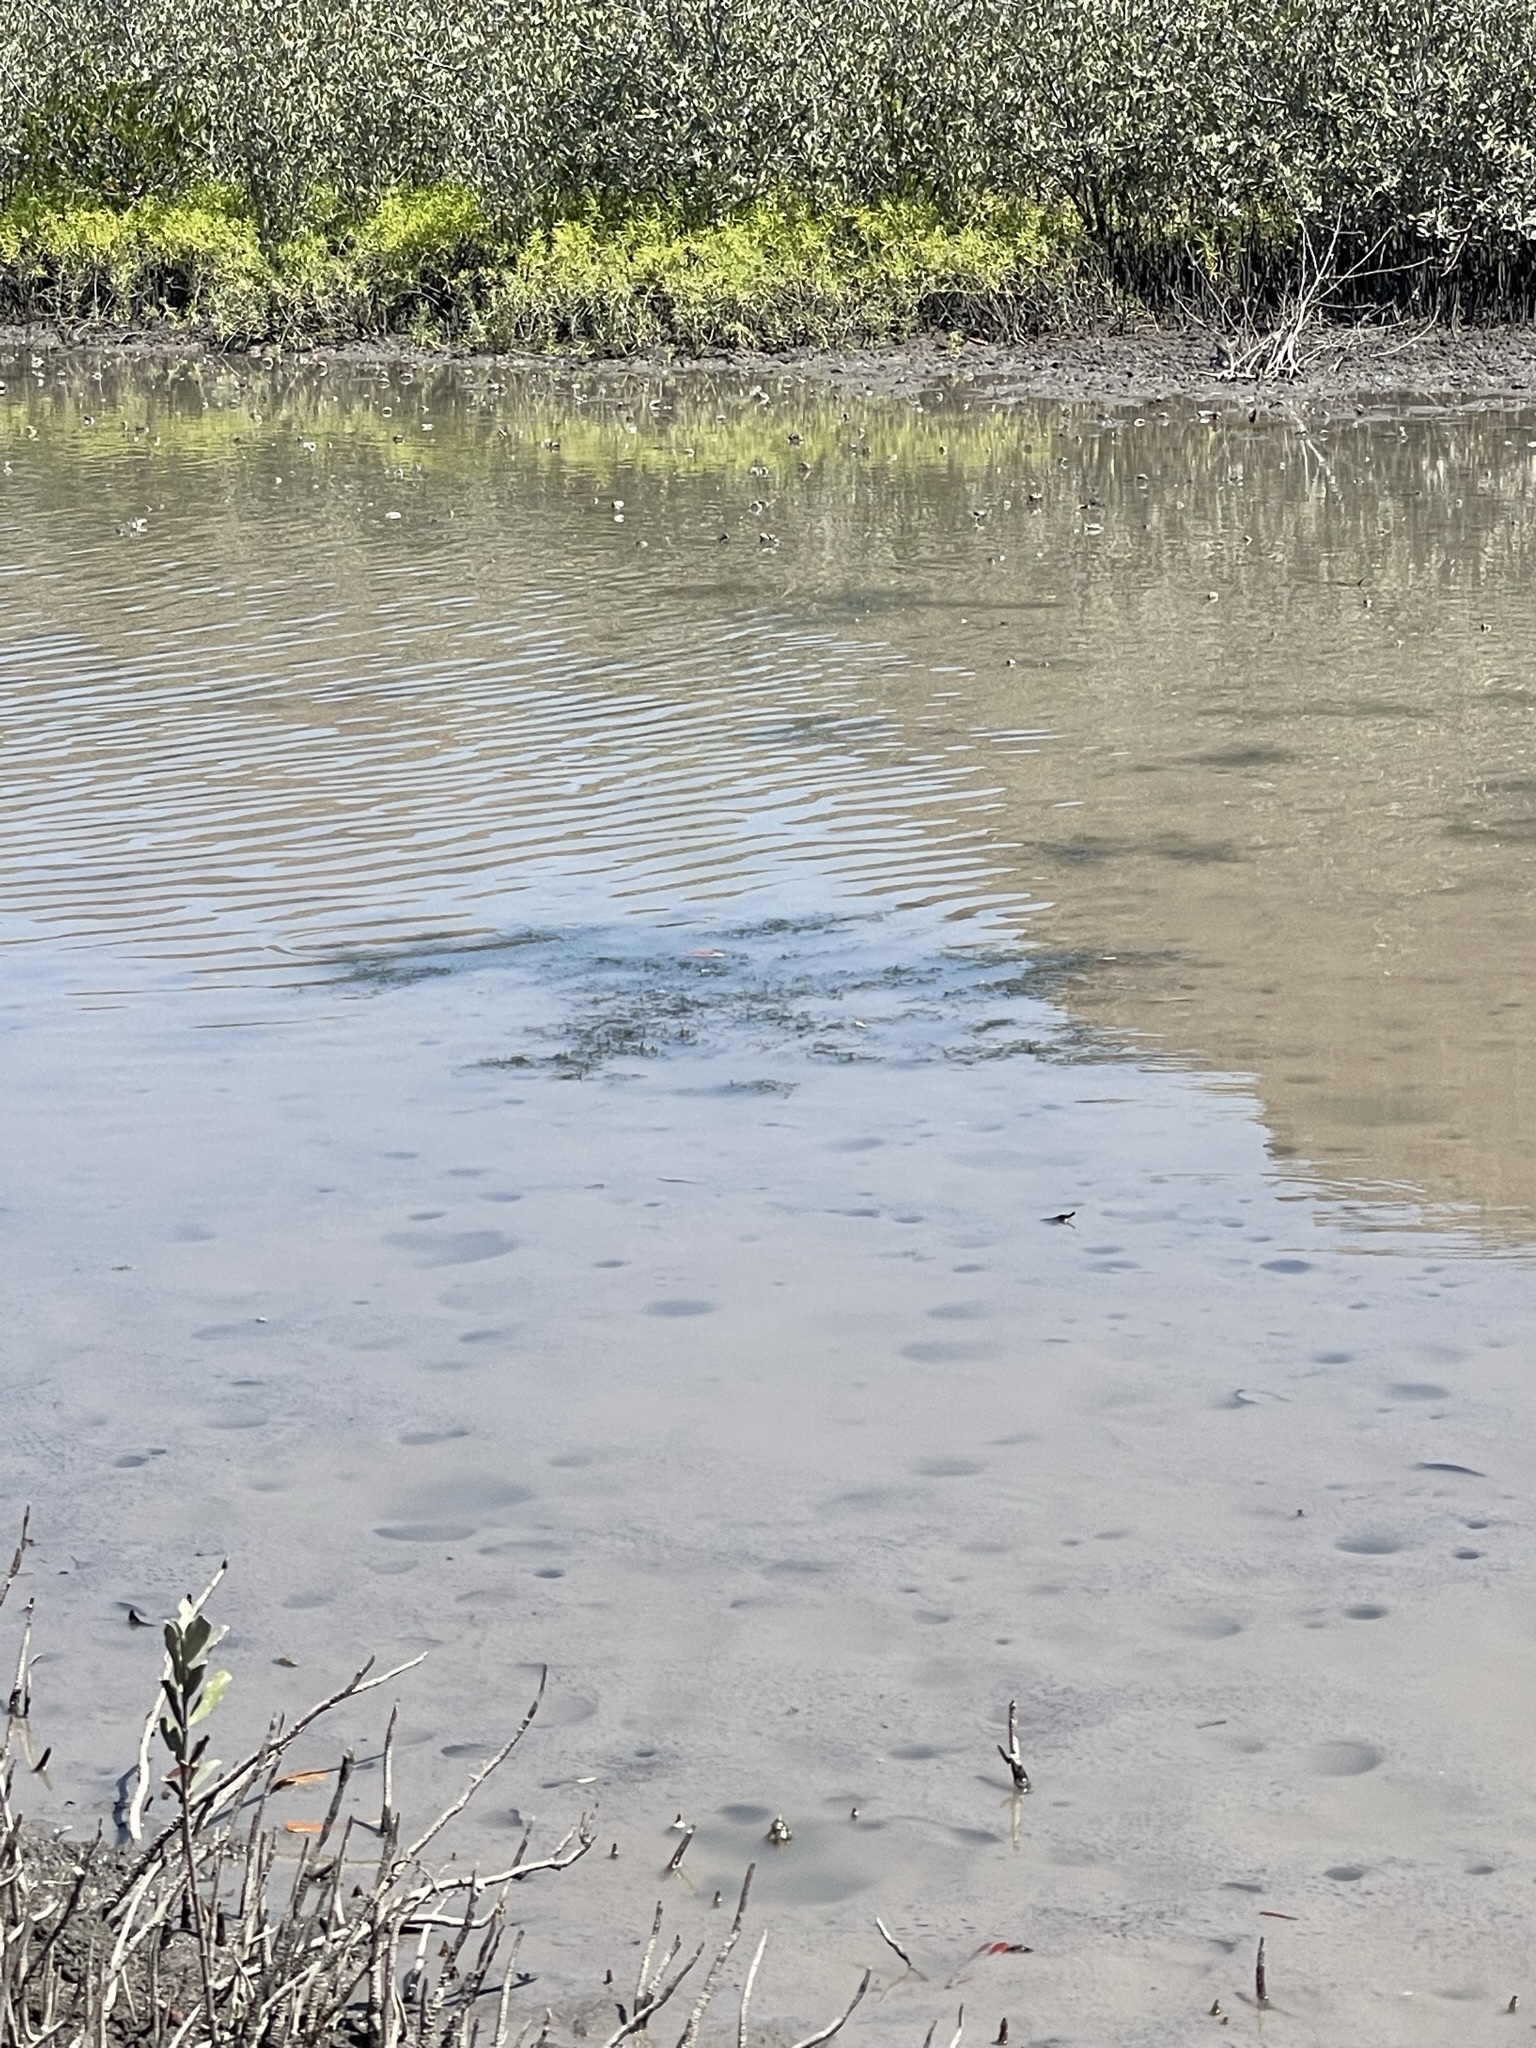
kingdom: Plantae
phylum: Tracheophyta
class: Liliopsida
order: Alismatales
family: Ruppiaceae
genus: Ruppia
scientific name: Ruppia maritima
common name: Beaked tasselweed
